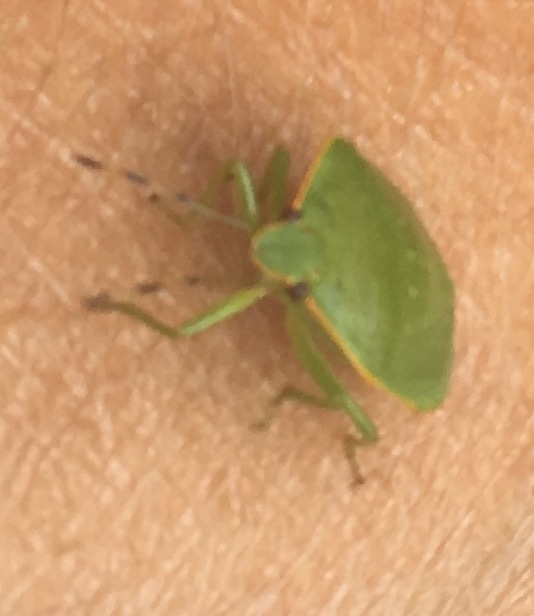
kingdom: Animalia
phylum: Arthropoda
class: Insecta
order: Hemiptera
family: Pentatomidae
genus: Chinavia
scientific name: Chinavia hilaris
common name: Green stink bug
